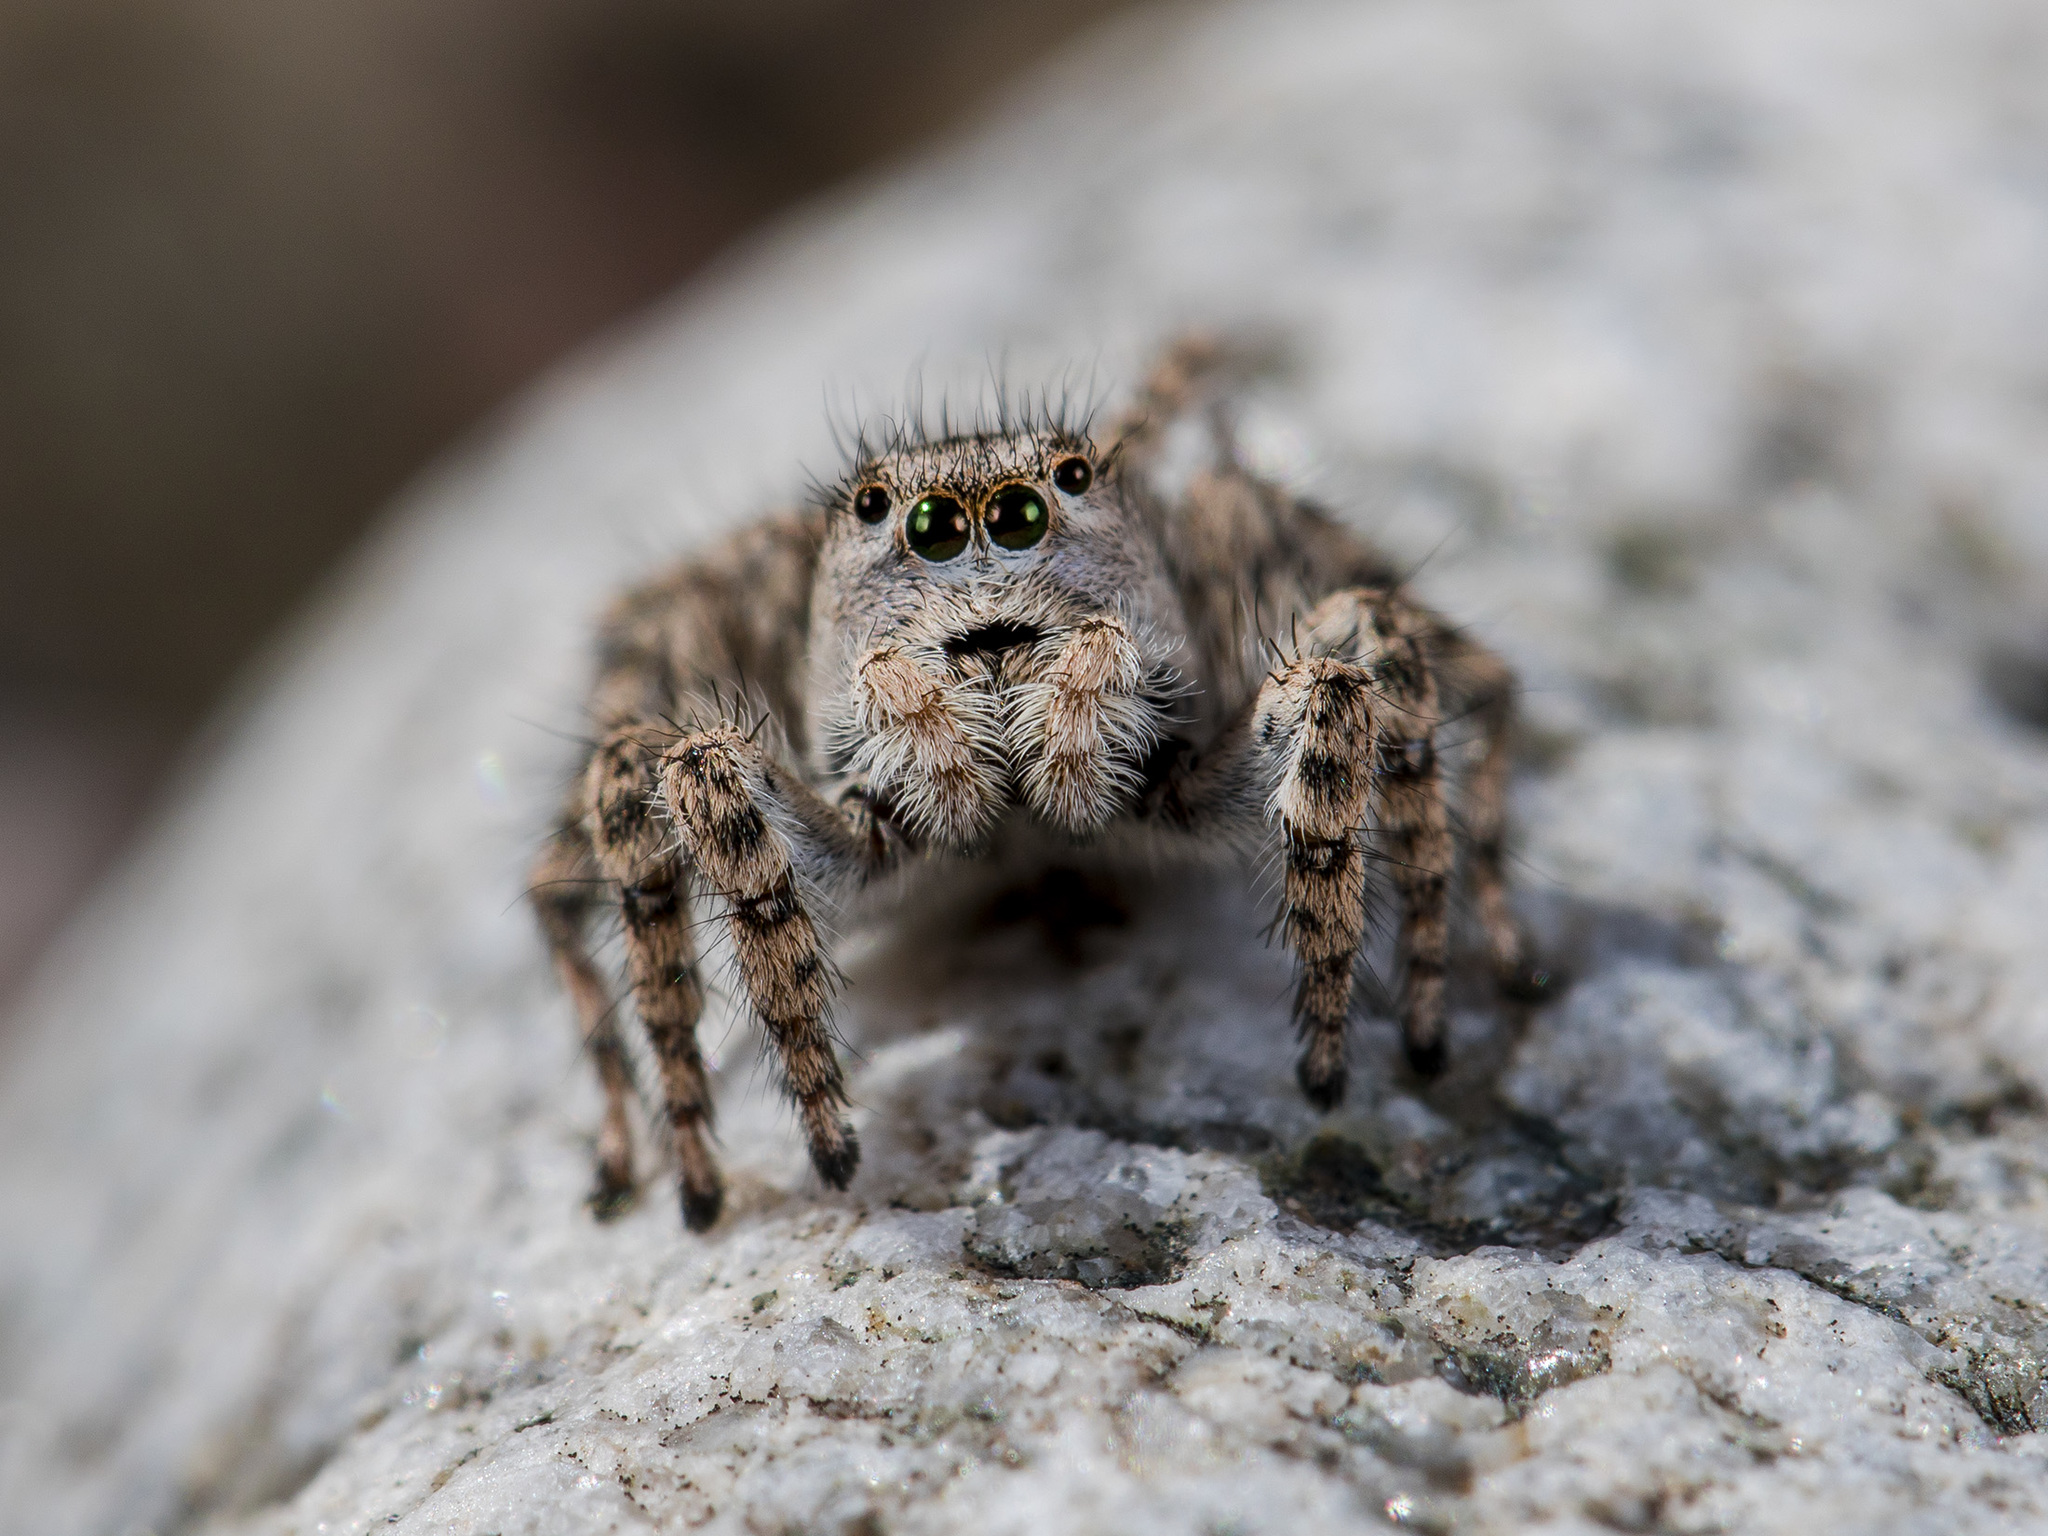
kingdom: Animalia
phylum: Arthropoda
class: Arachnida
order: Araneae
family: Salticidae
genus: Aelurillus
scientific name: Aelurillus dubatolovi
